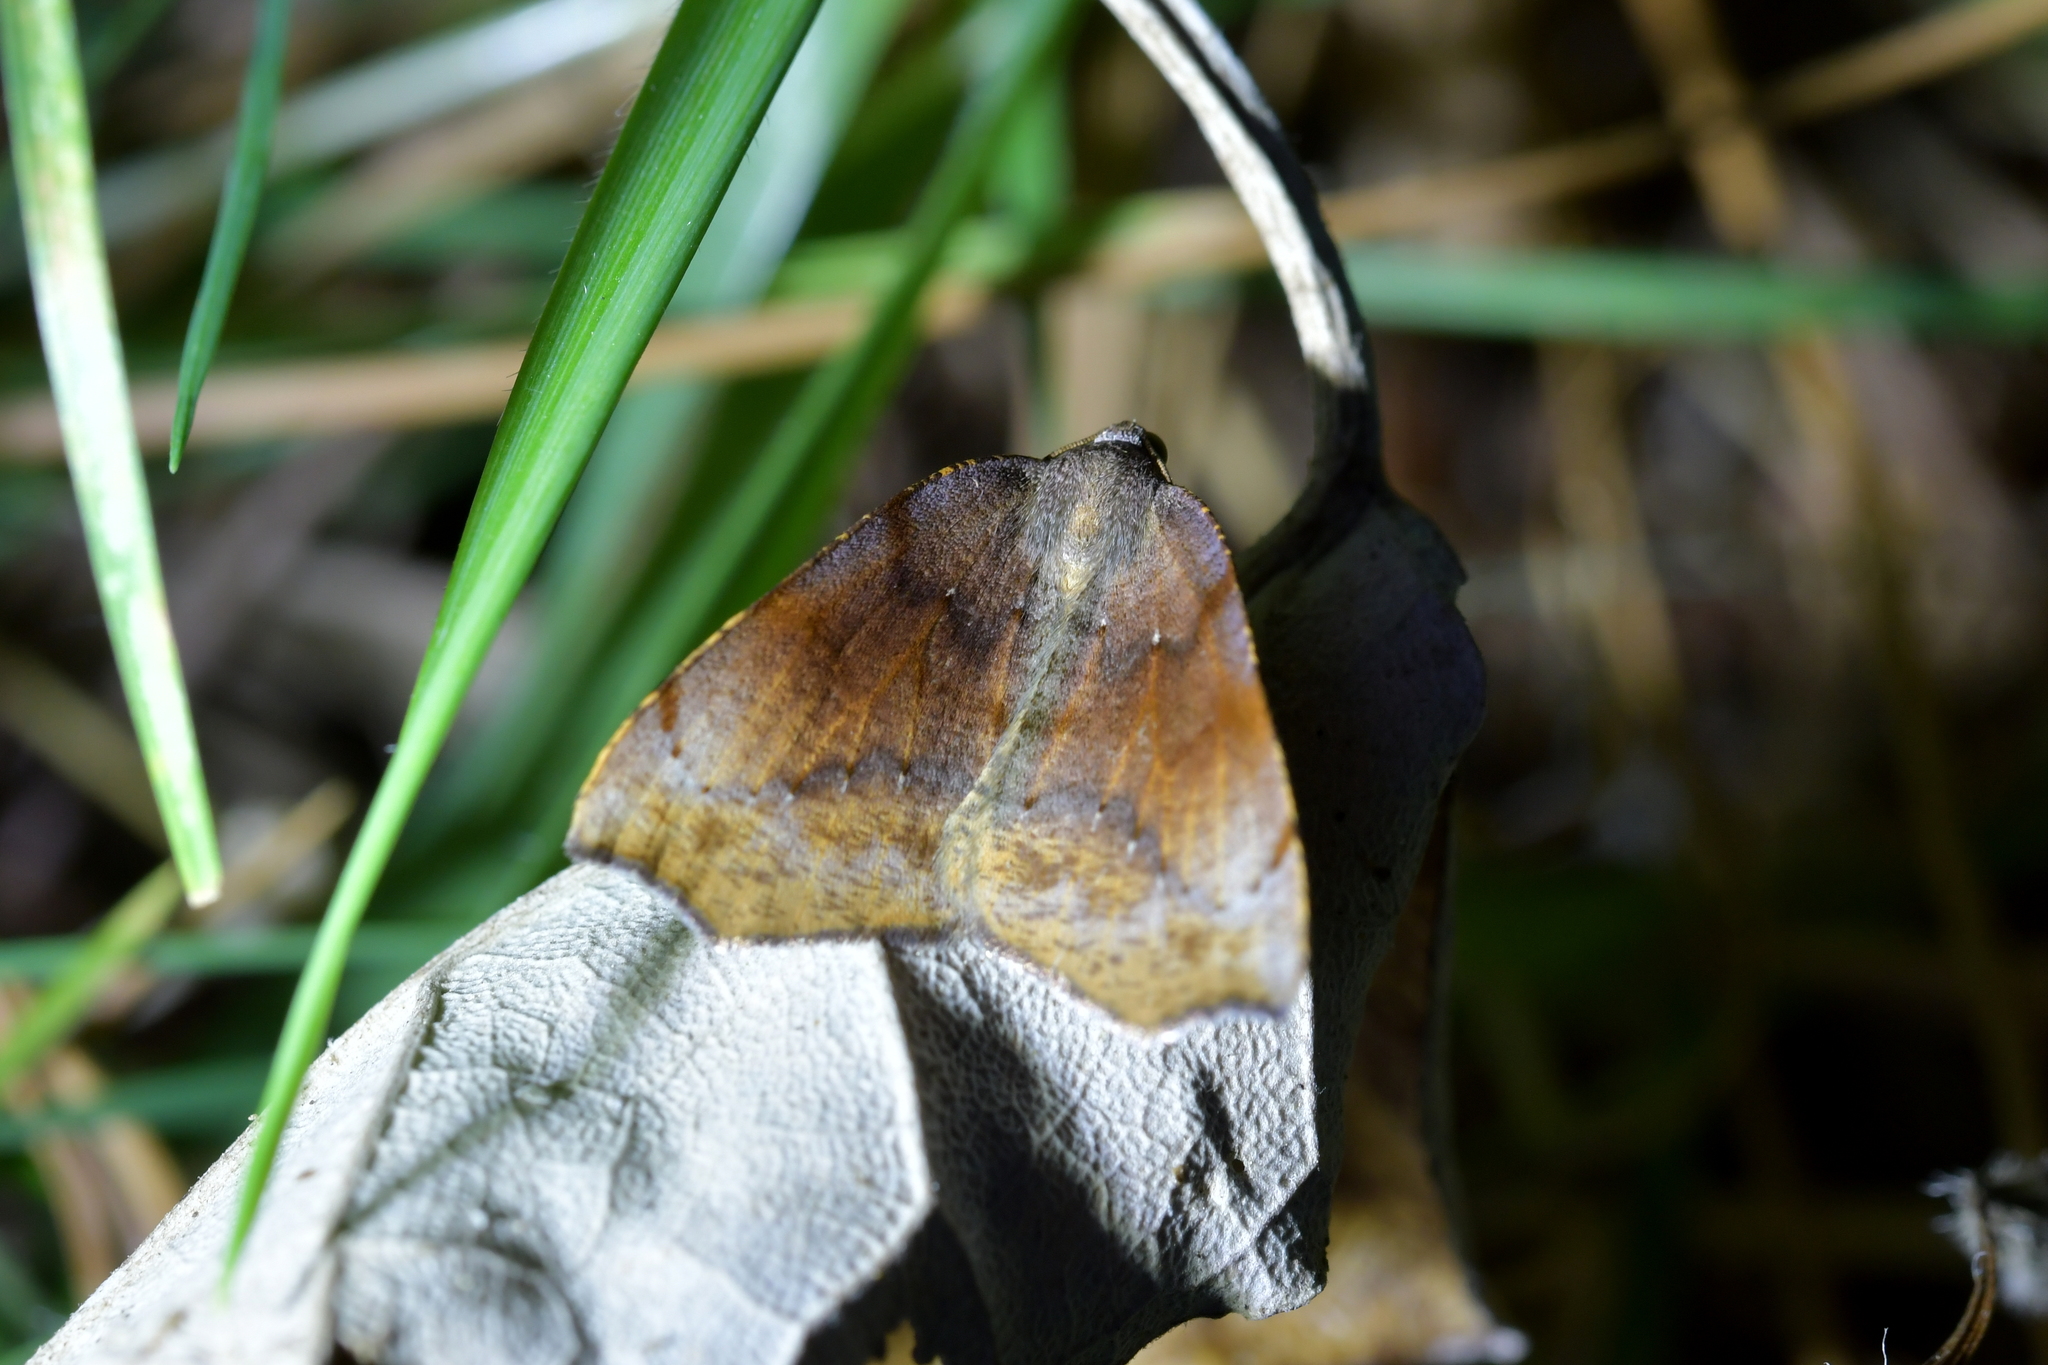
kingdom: Animalia
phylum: Arthropoda
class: Insecta
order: Lepidoptera
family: Geometridae
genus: Sestra
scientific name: Sestra flexata
